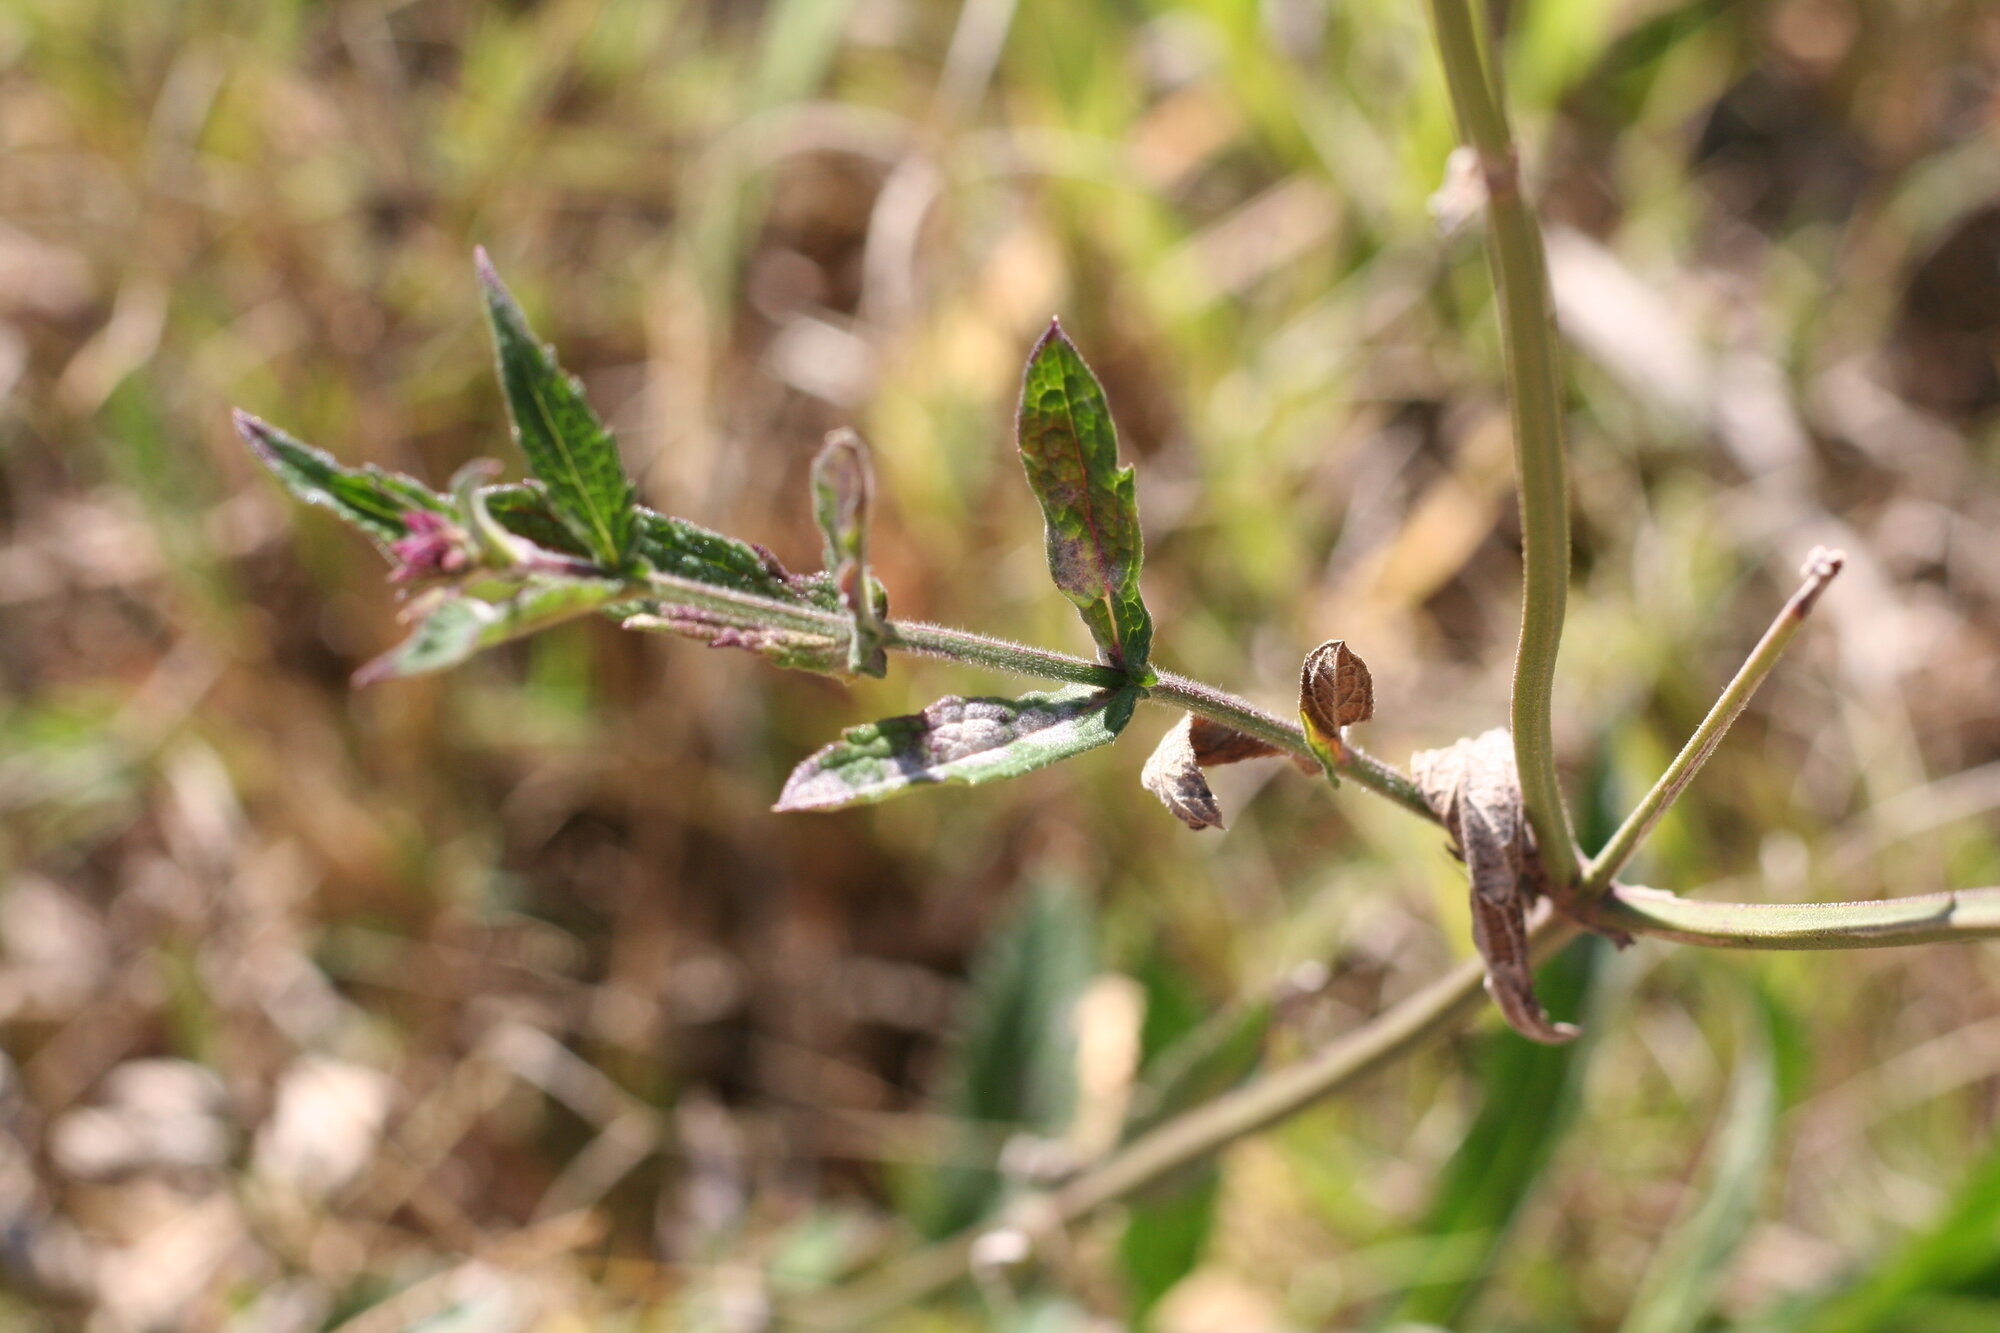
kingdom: Plantae
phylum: Tracheophyta
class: Magnoliopsida
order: Lamiales
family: Verbenaceae
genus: Verbena
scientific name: Verbena bonariensis
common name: Purpletop vervain
